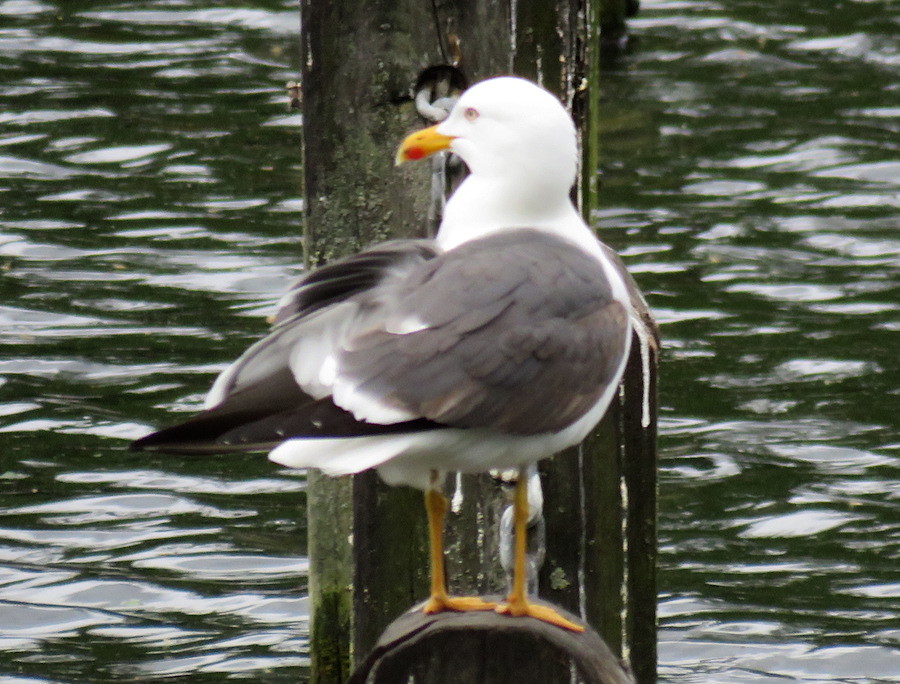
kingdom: Animalia
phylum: Chordata
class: Aves
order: Charadriiformes
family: Laridae
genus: Larus
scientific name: Larus fuscus
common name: Lesser black-backed gull
